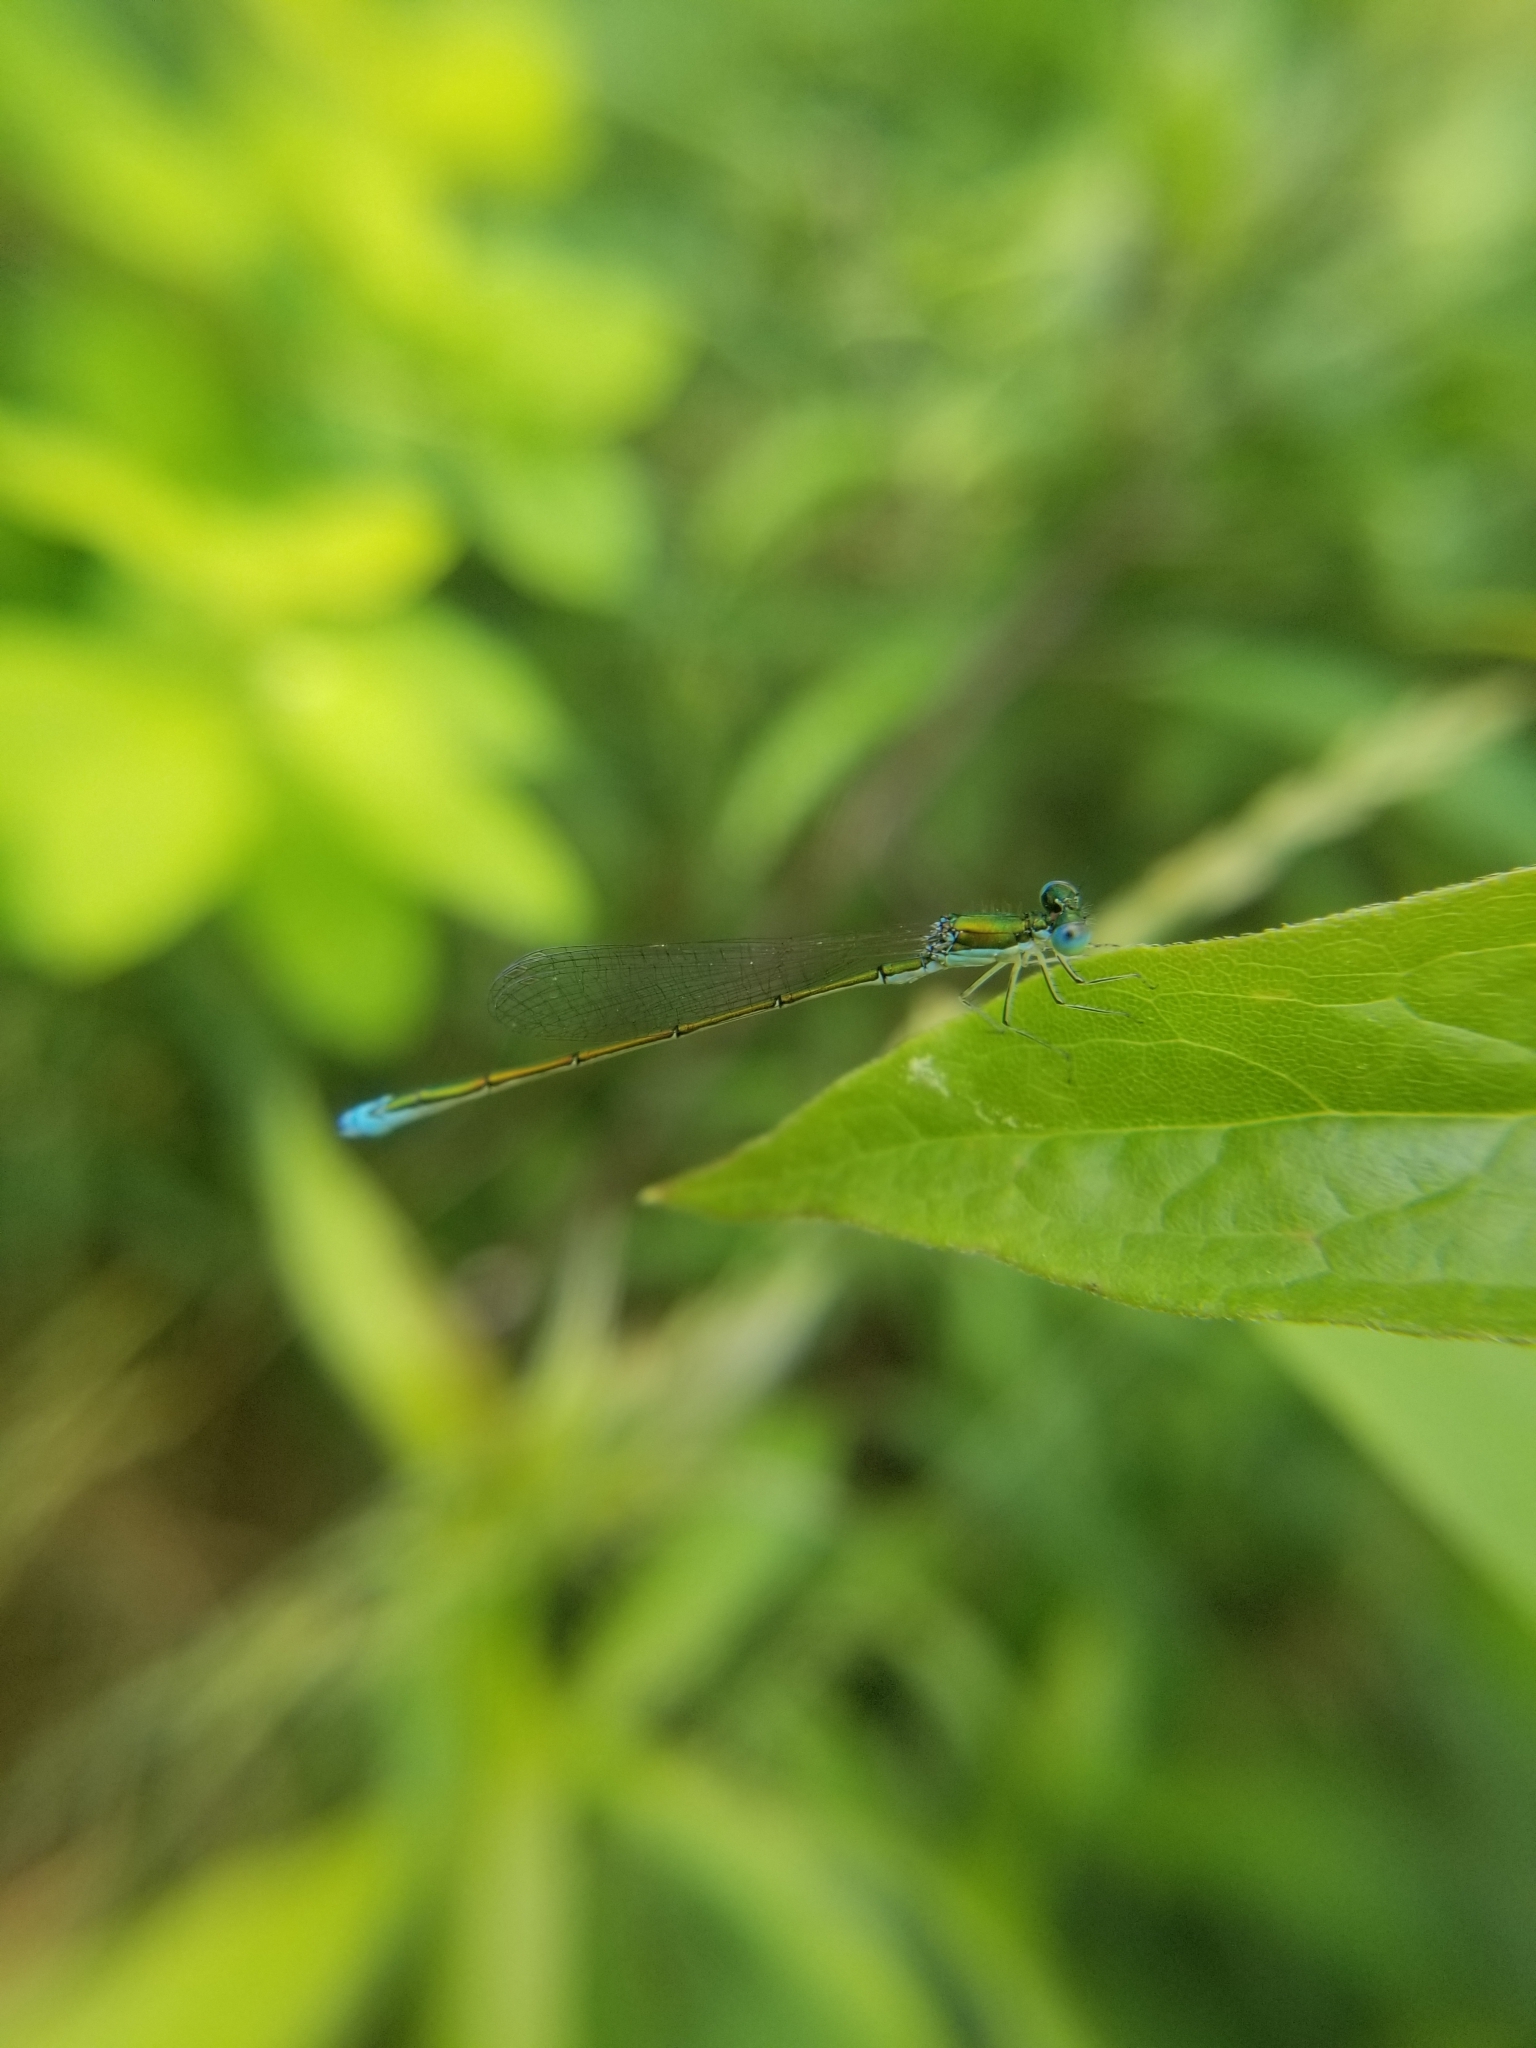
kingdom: Animalia
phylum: Arthropoda
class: Insecta
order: Odonata
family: Coenagrionidae
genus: Nehalennia
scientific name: Nehalennia irene
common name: Sedge sprite
